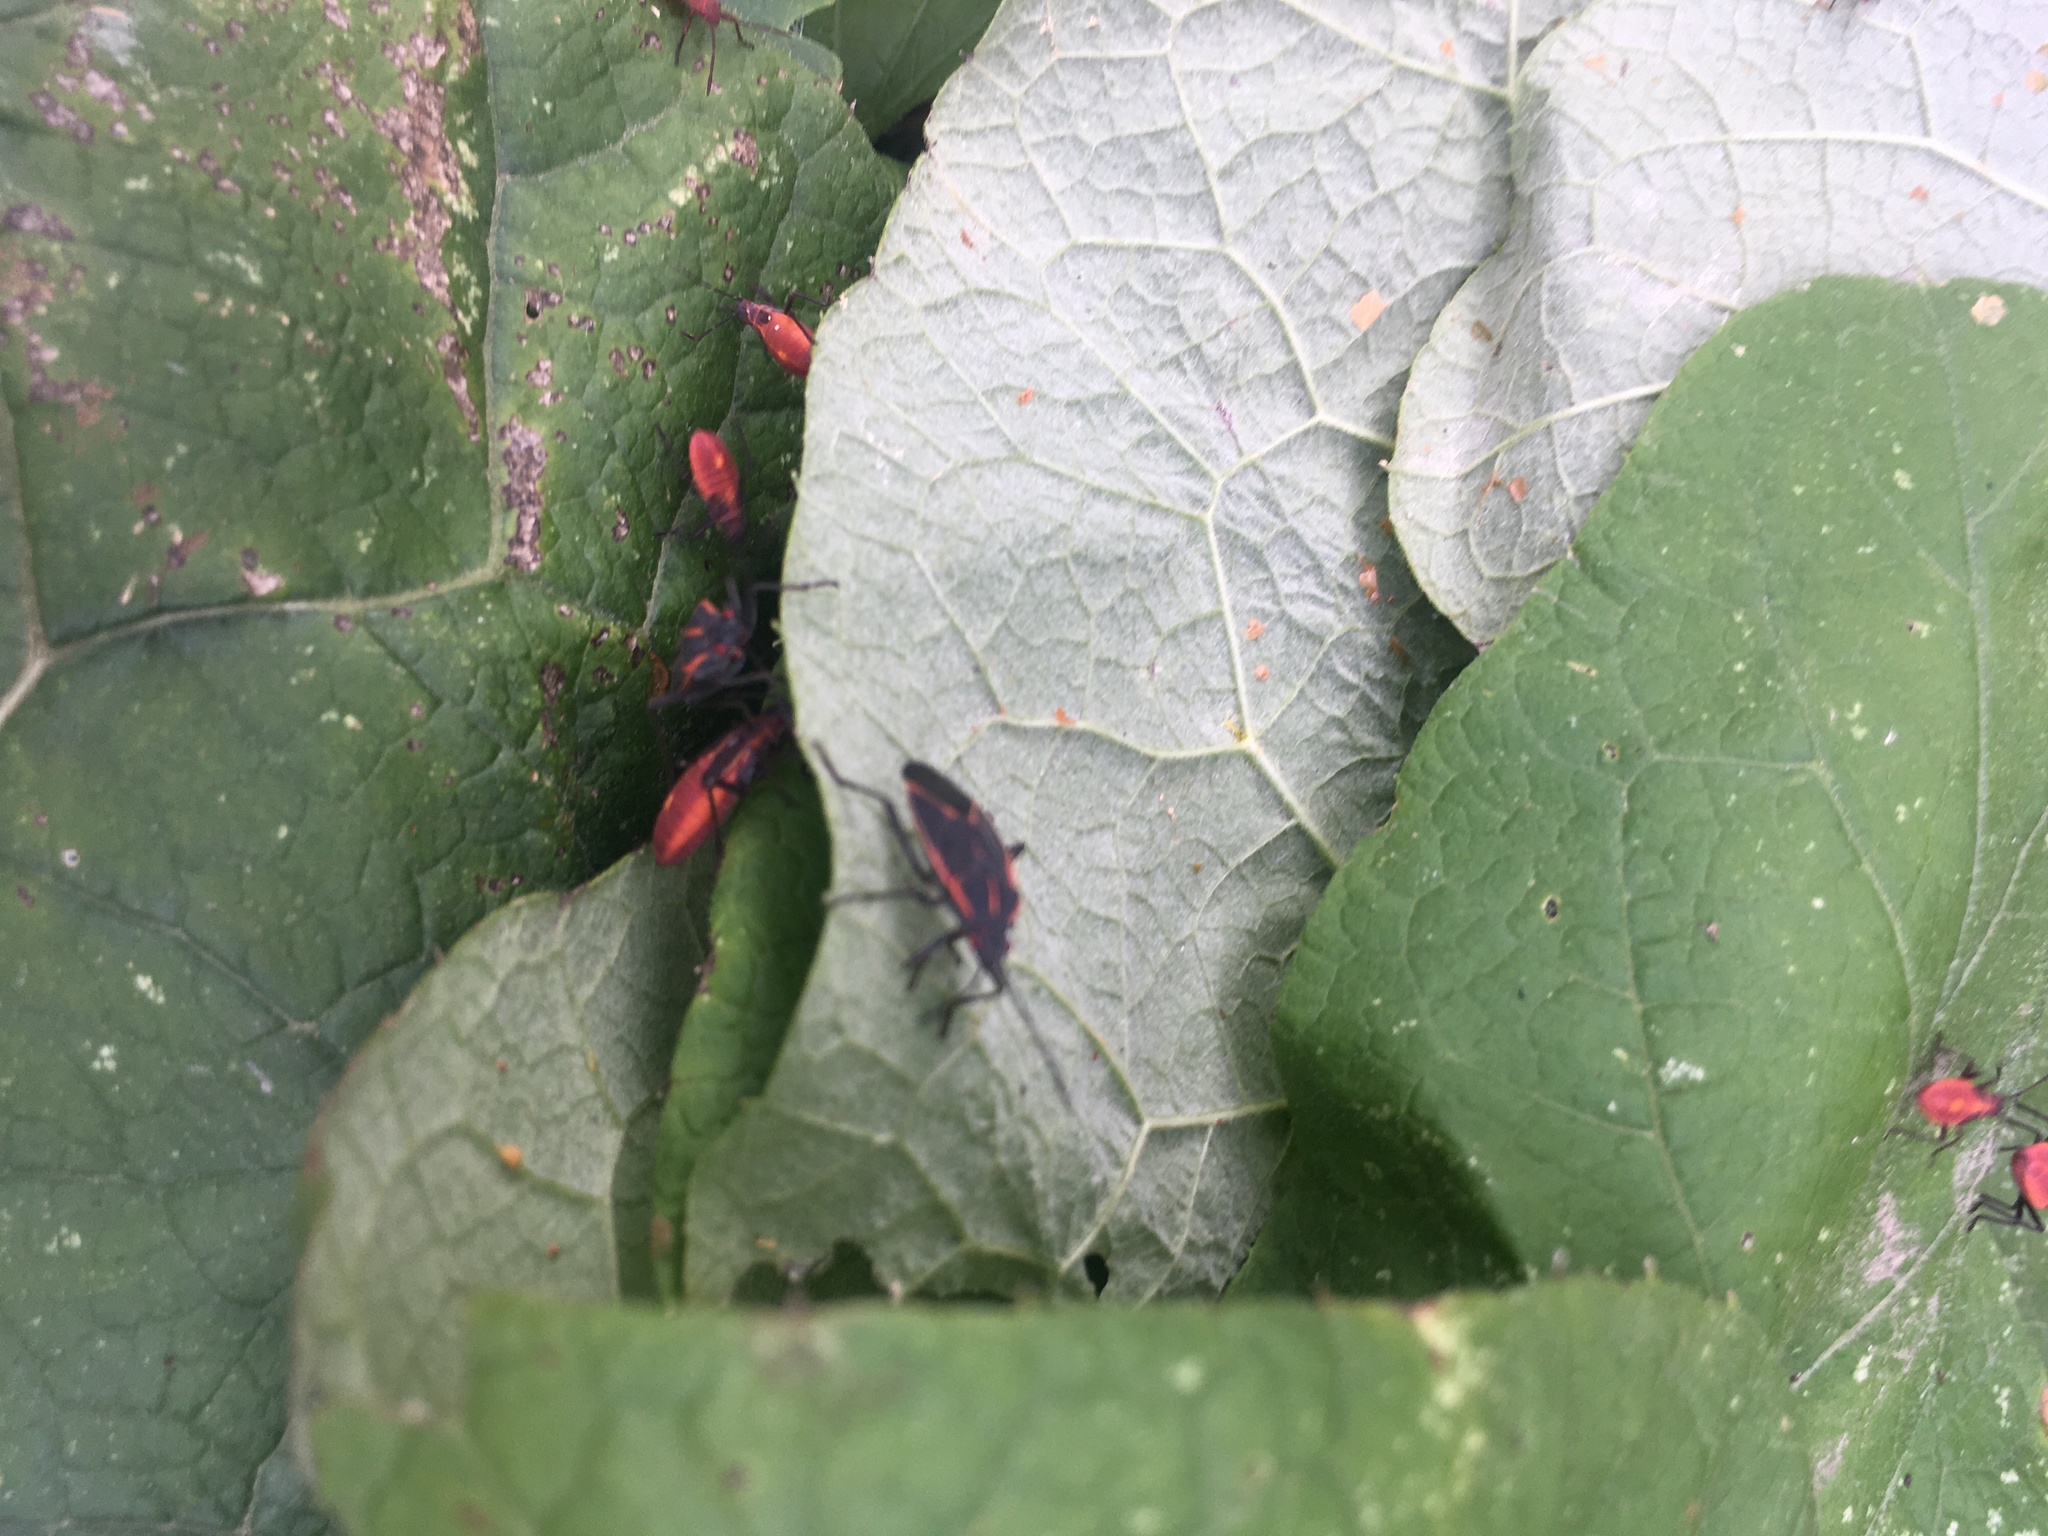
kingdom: Animalia
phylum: Arthropoda
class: Insecta
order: Hemiptera
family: Rhopalidae
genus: Boisea
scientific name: Boisea trivittata
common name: Boxelder bug
